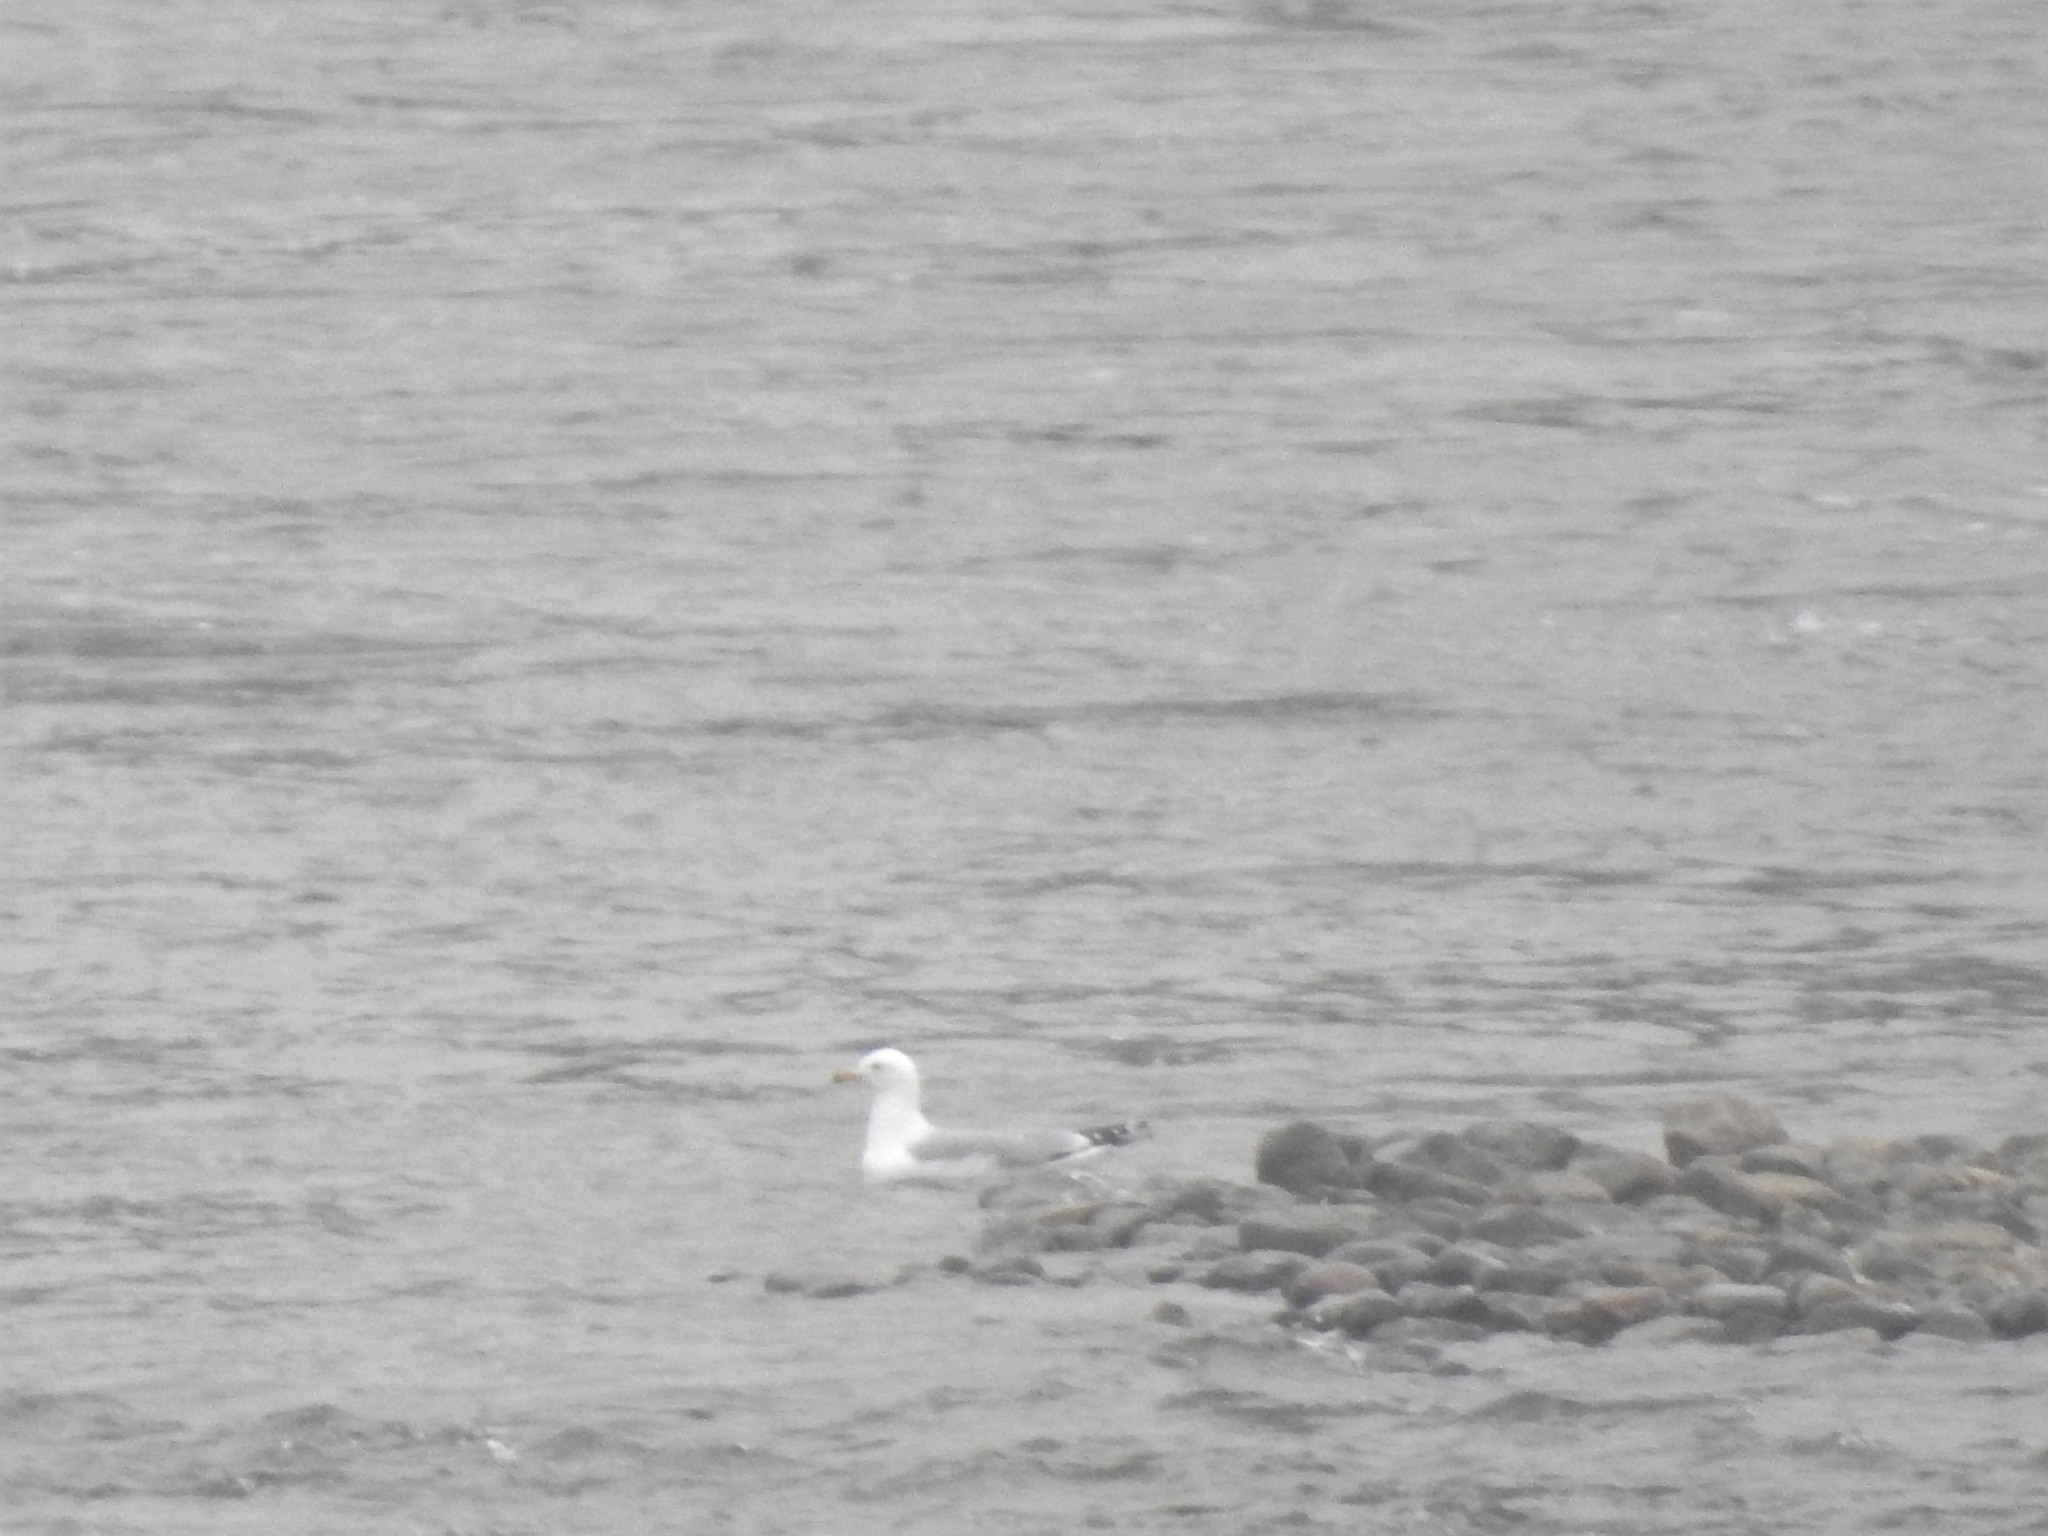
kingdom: Animalia
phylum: Chordata
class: Aves
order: Charadriiformes
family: Laridae
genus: Larus
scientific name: Larus delawarensis
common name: Ring-billed gull
